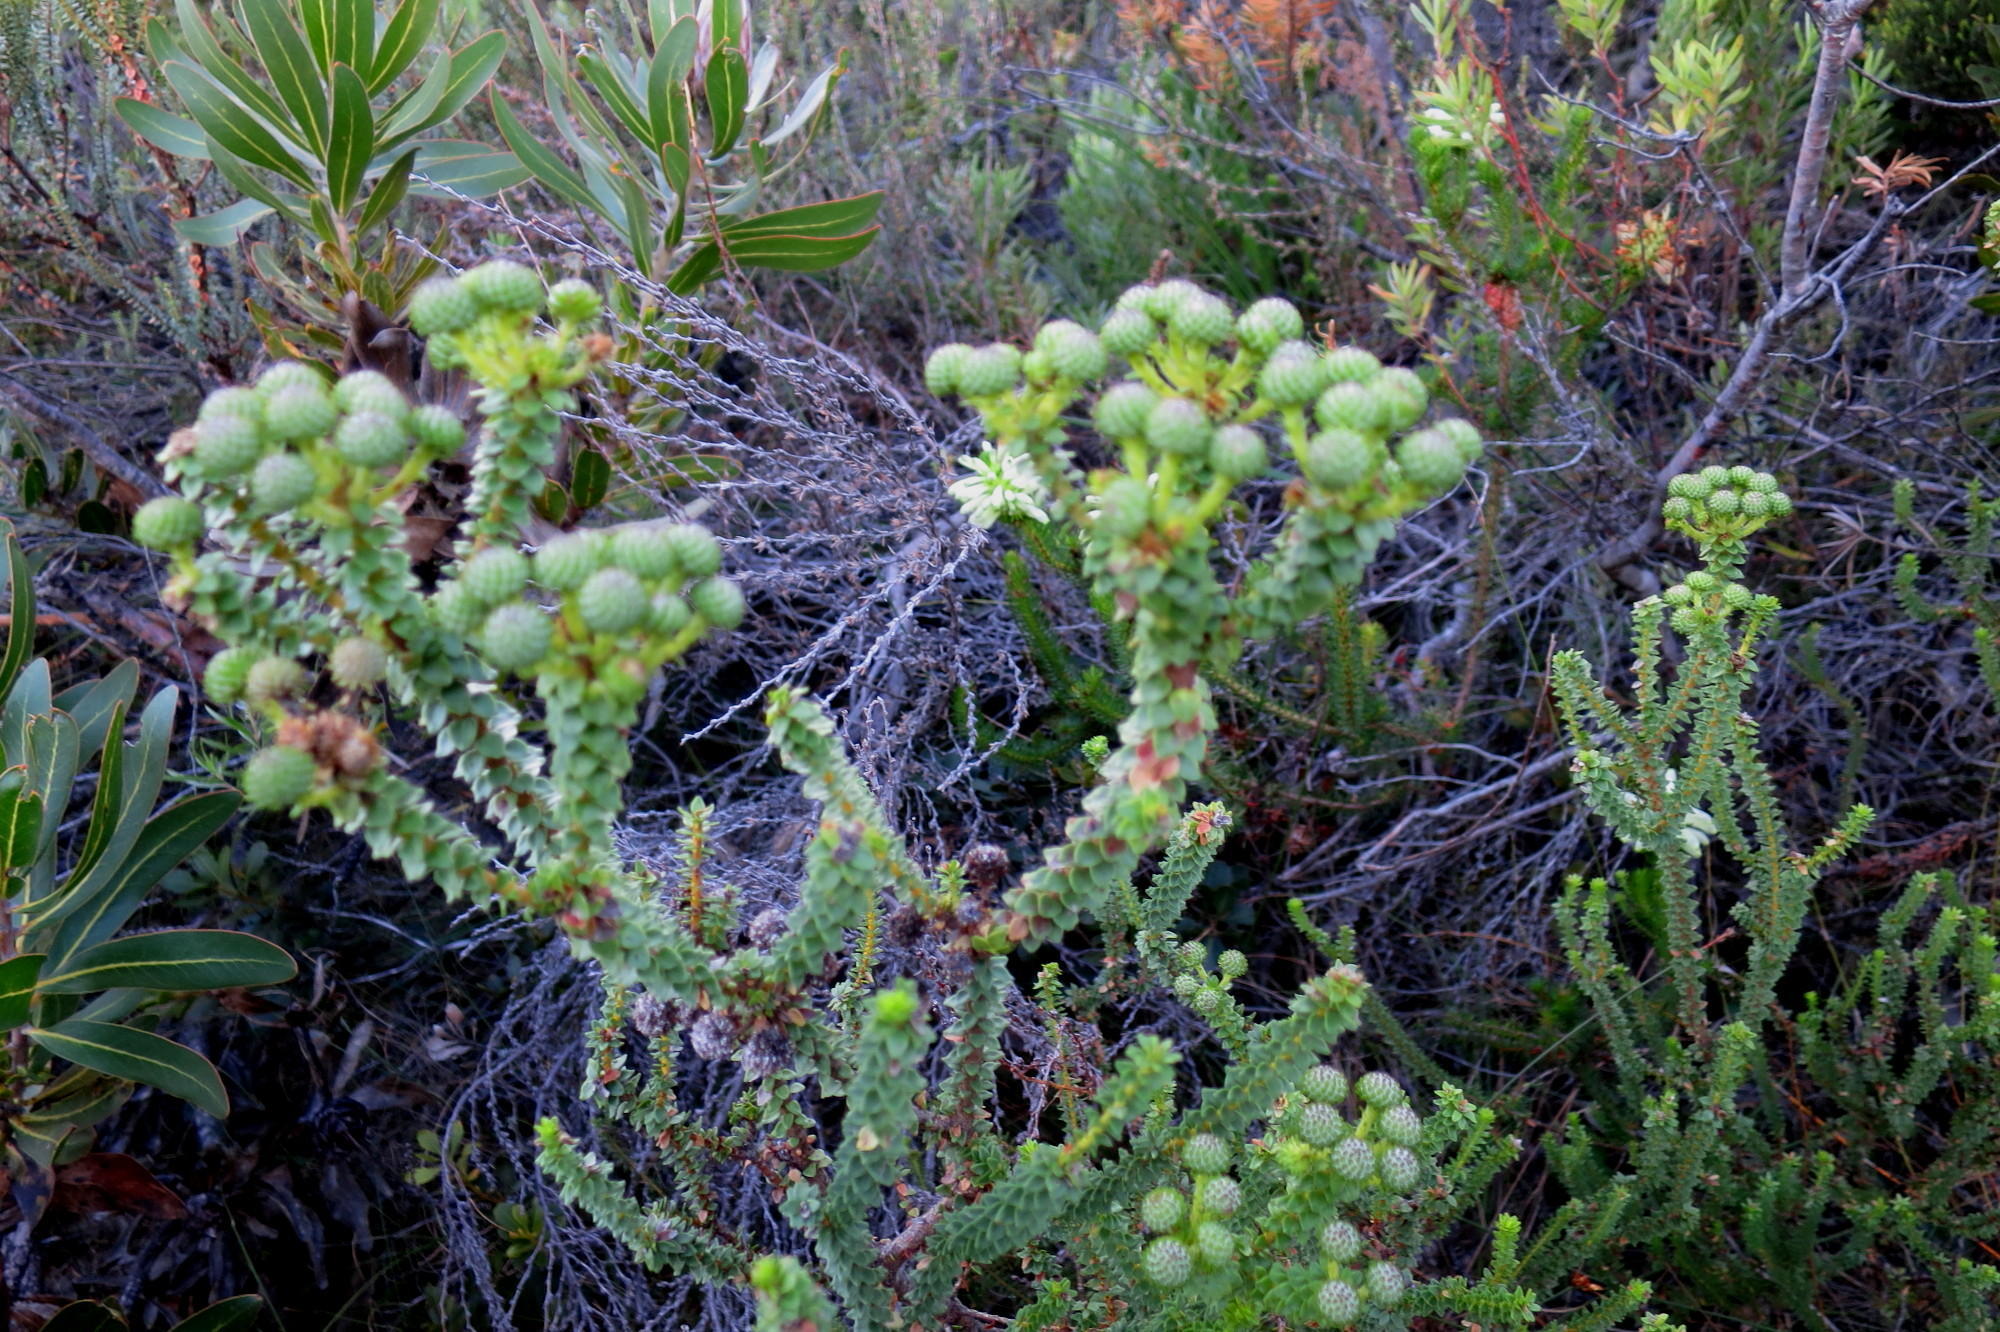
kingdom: Plantae
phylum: Tracheophyta
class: Magnoliopsida
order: Bruniales
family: Bruniaceae
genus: Berzelia
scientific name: Berzelia cordifolia
